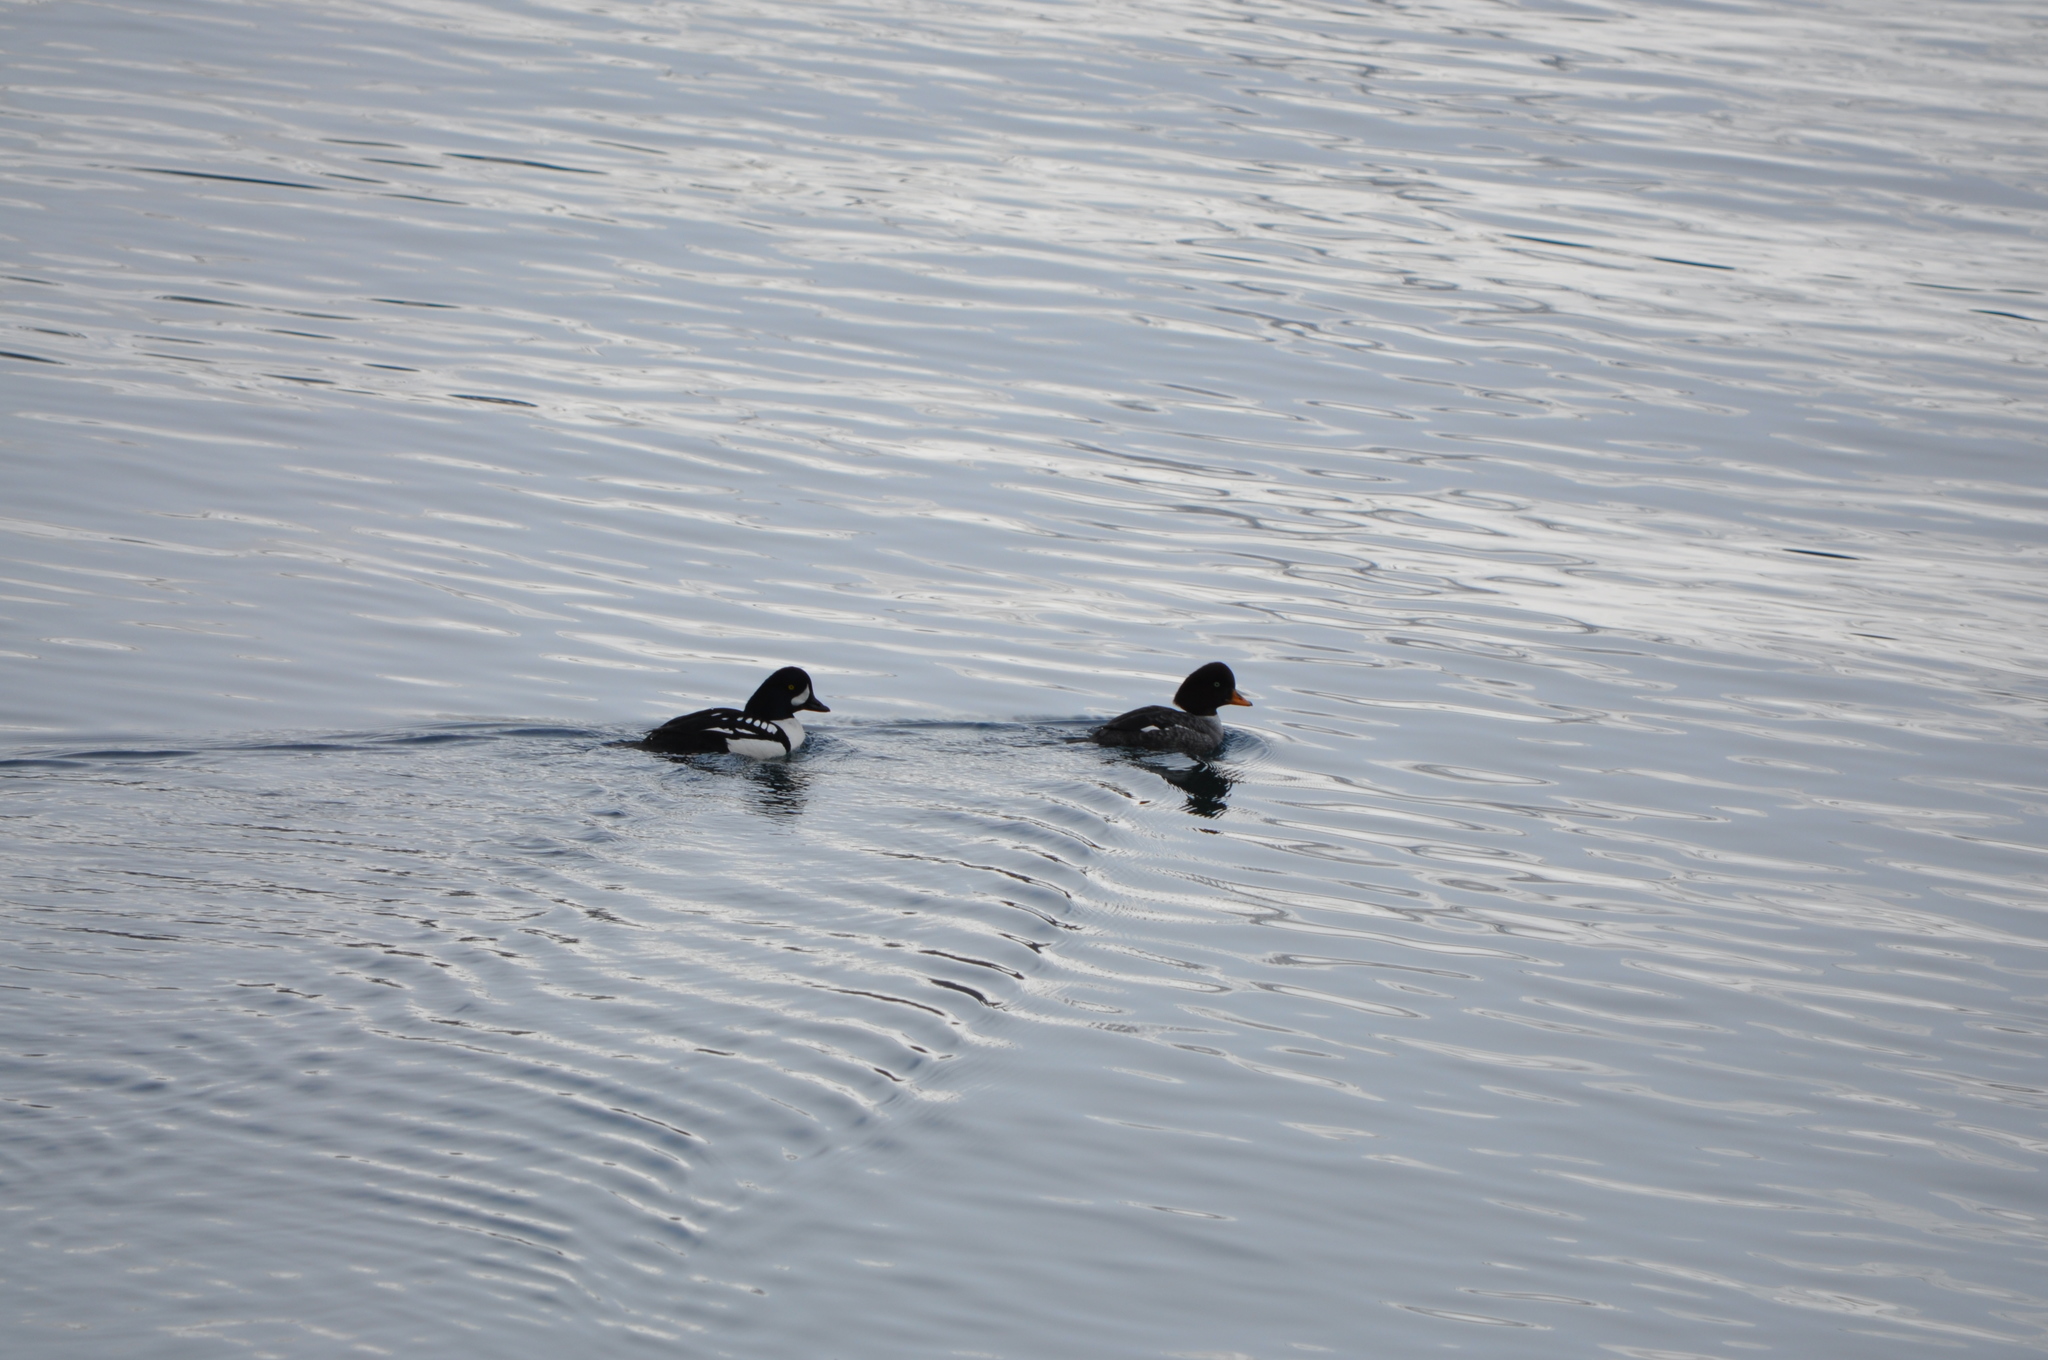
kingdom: Animalia
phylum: Chordata
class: Aves
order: Anseriformes
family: Anatidae
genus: Bucephala
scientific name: Bucephala islandica
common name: Barrow's goldeneye
